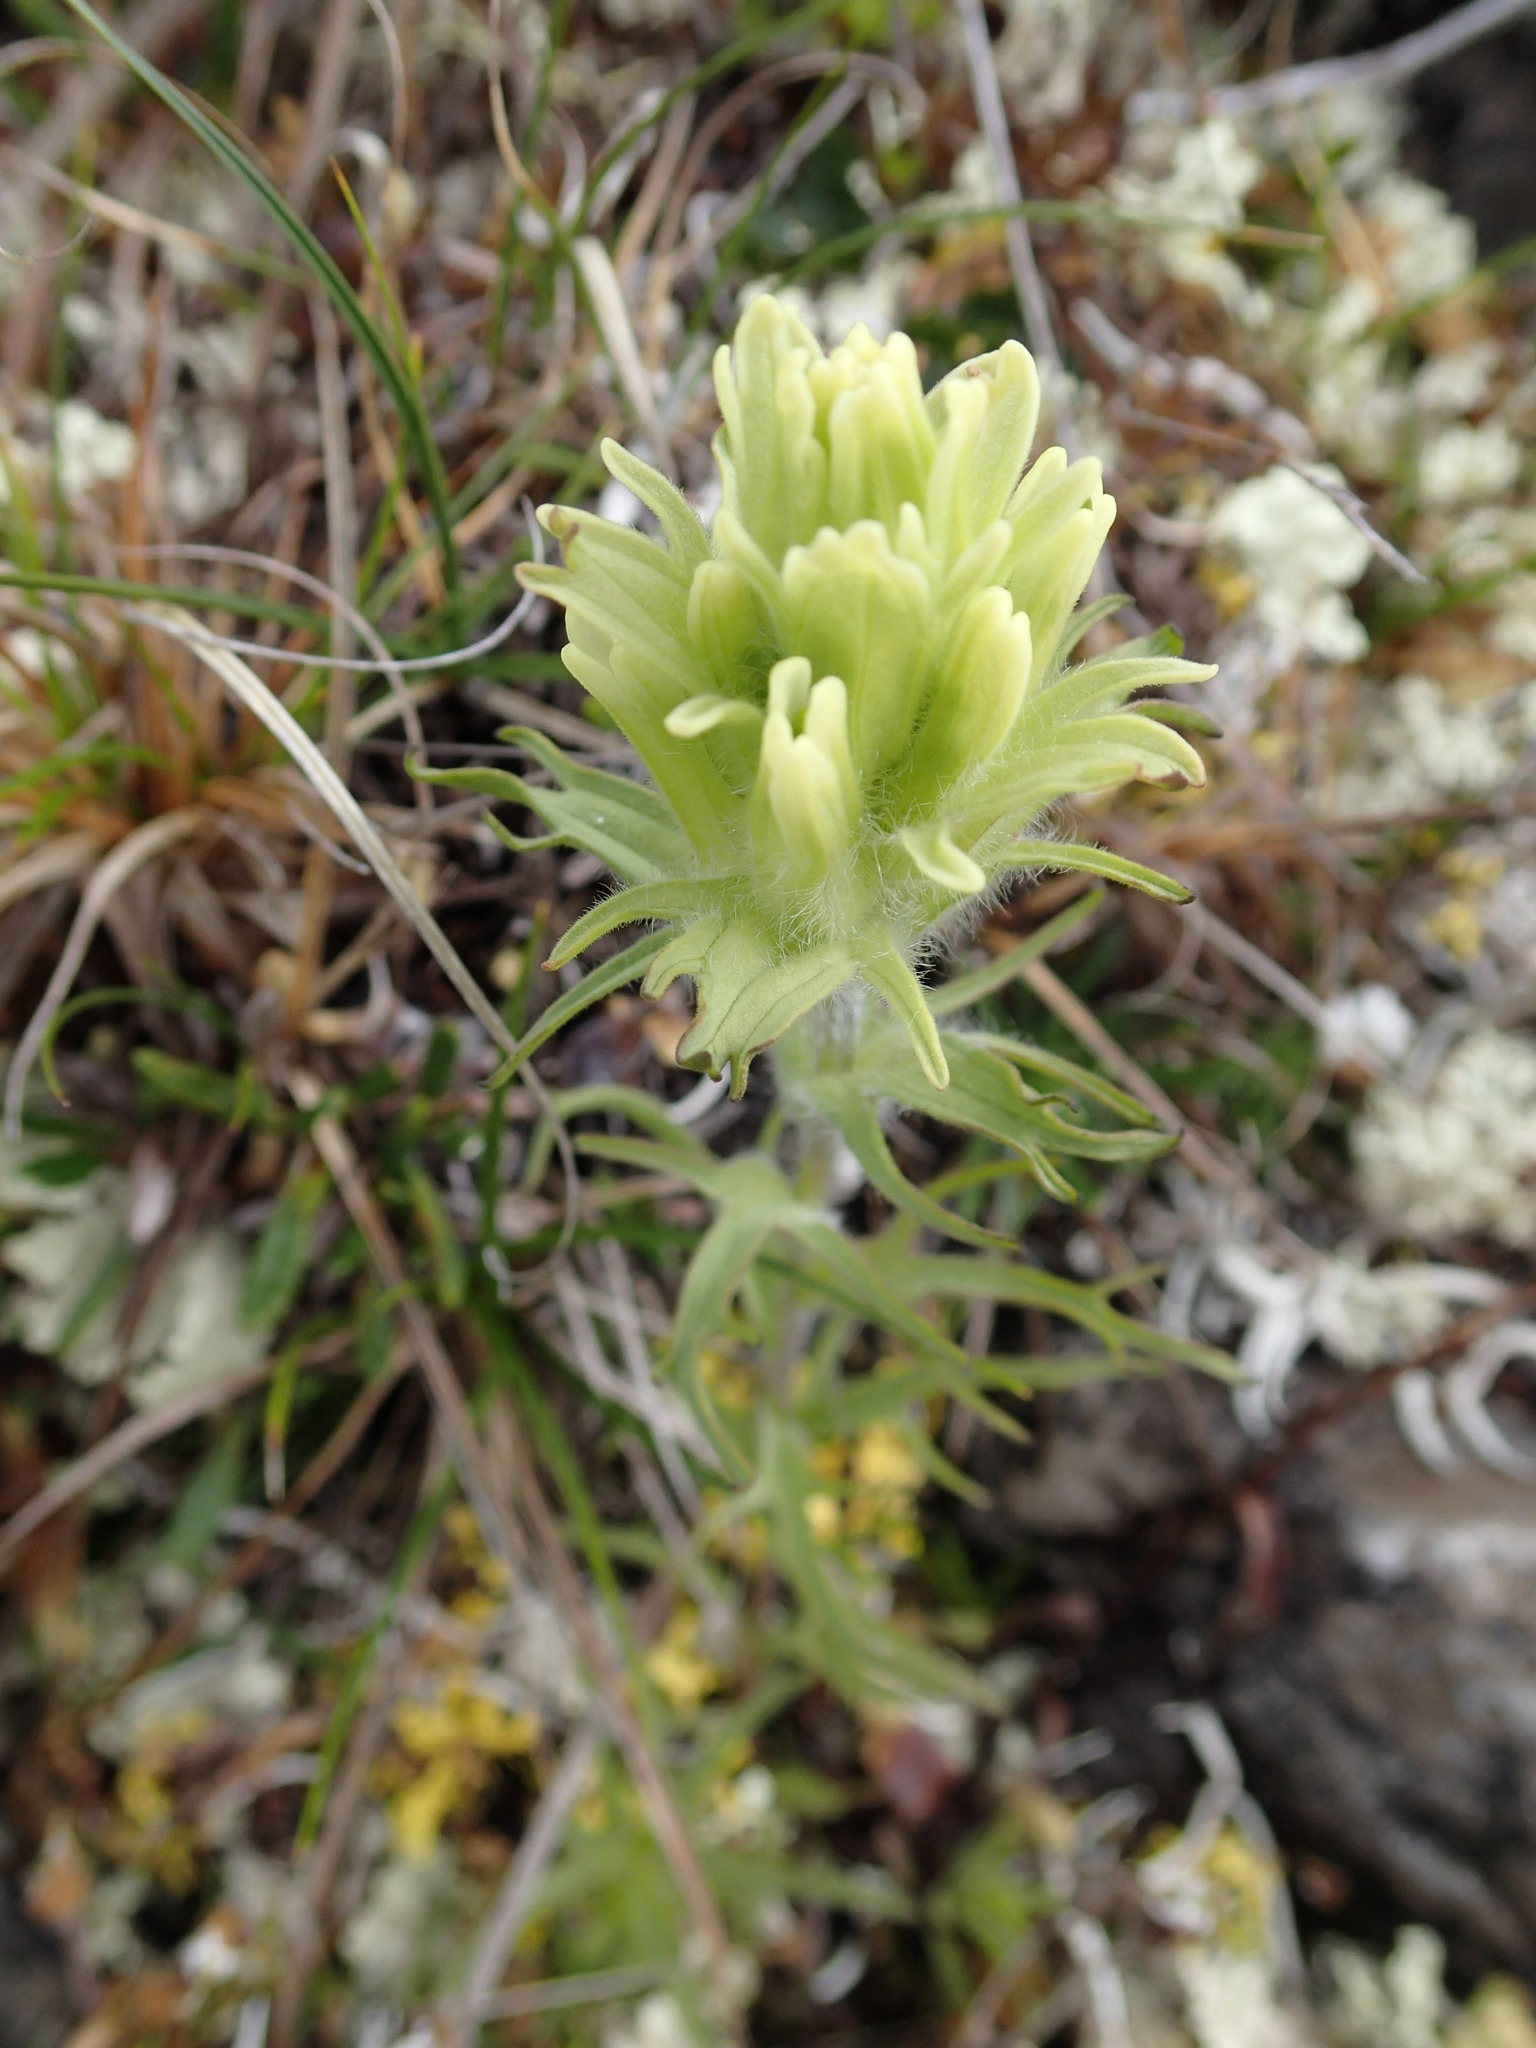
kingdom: Plantae
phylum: Tracheophyta
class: Magnoliopsida
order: Lamiales
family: Orobanchaceae
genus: Castilleja
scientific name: Castilleja hyperborea
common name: Northern paintbrush
